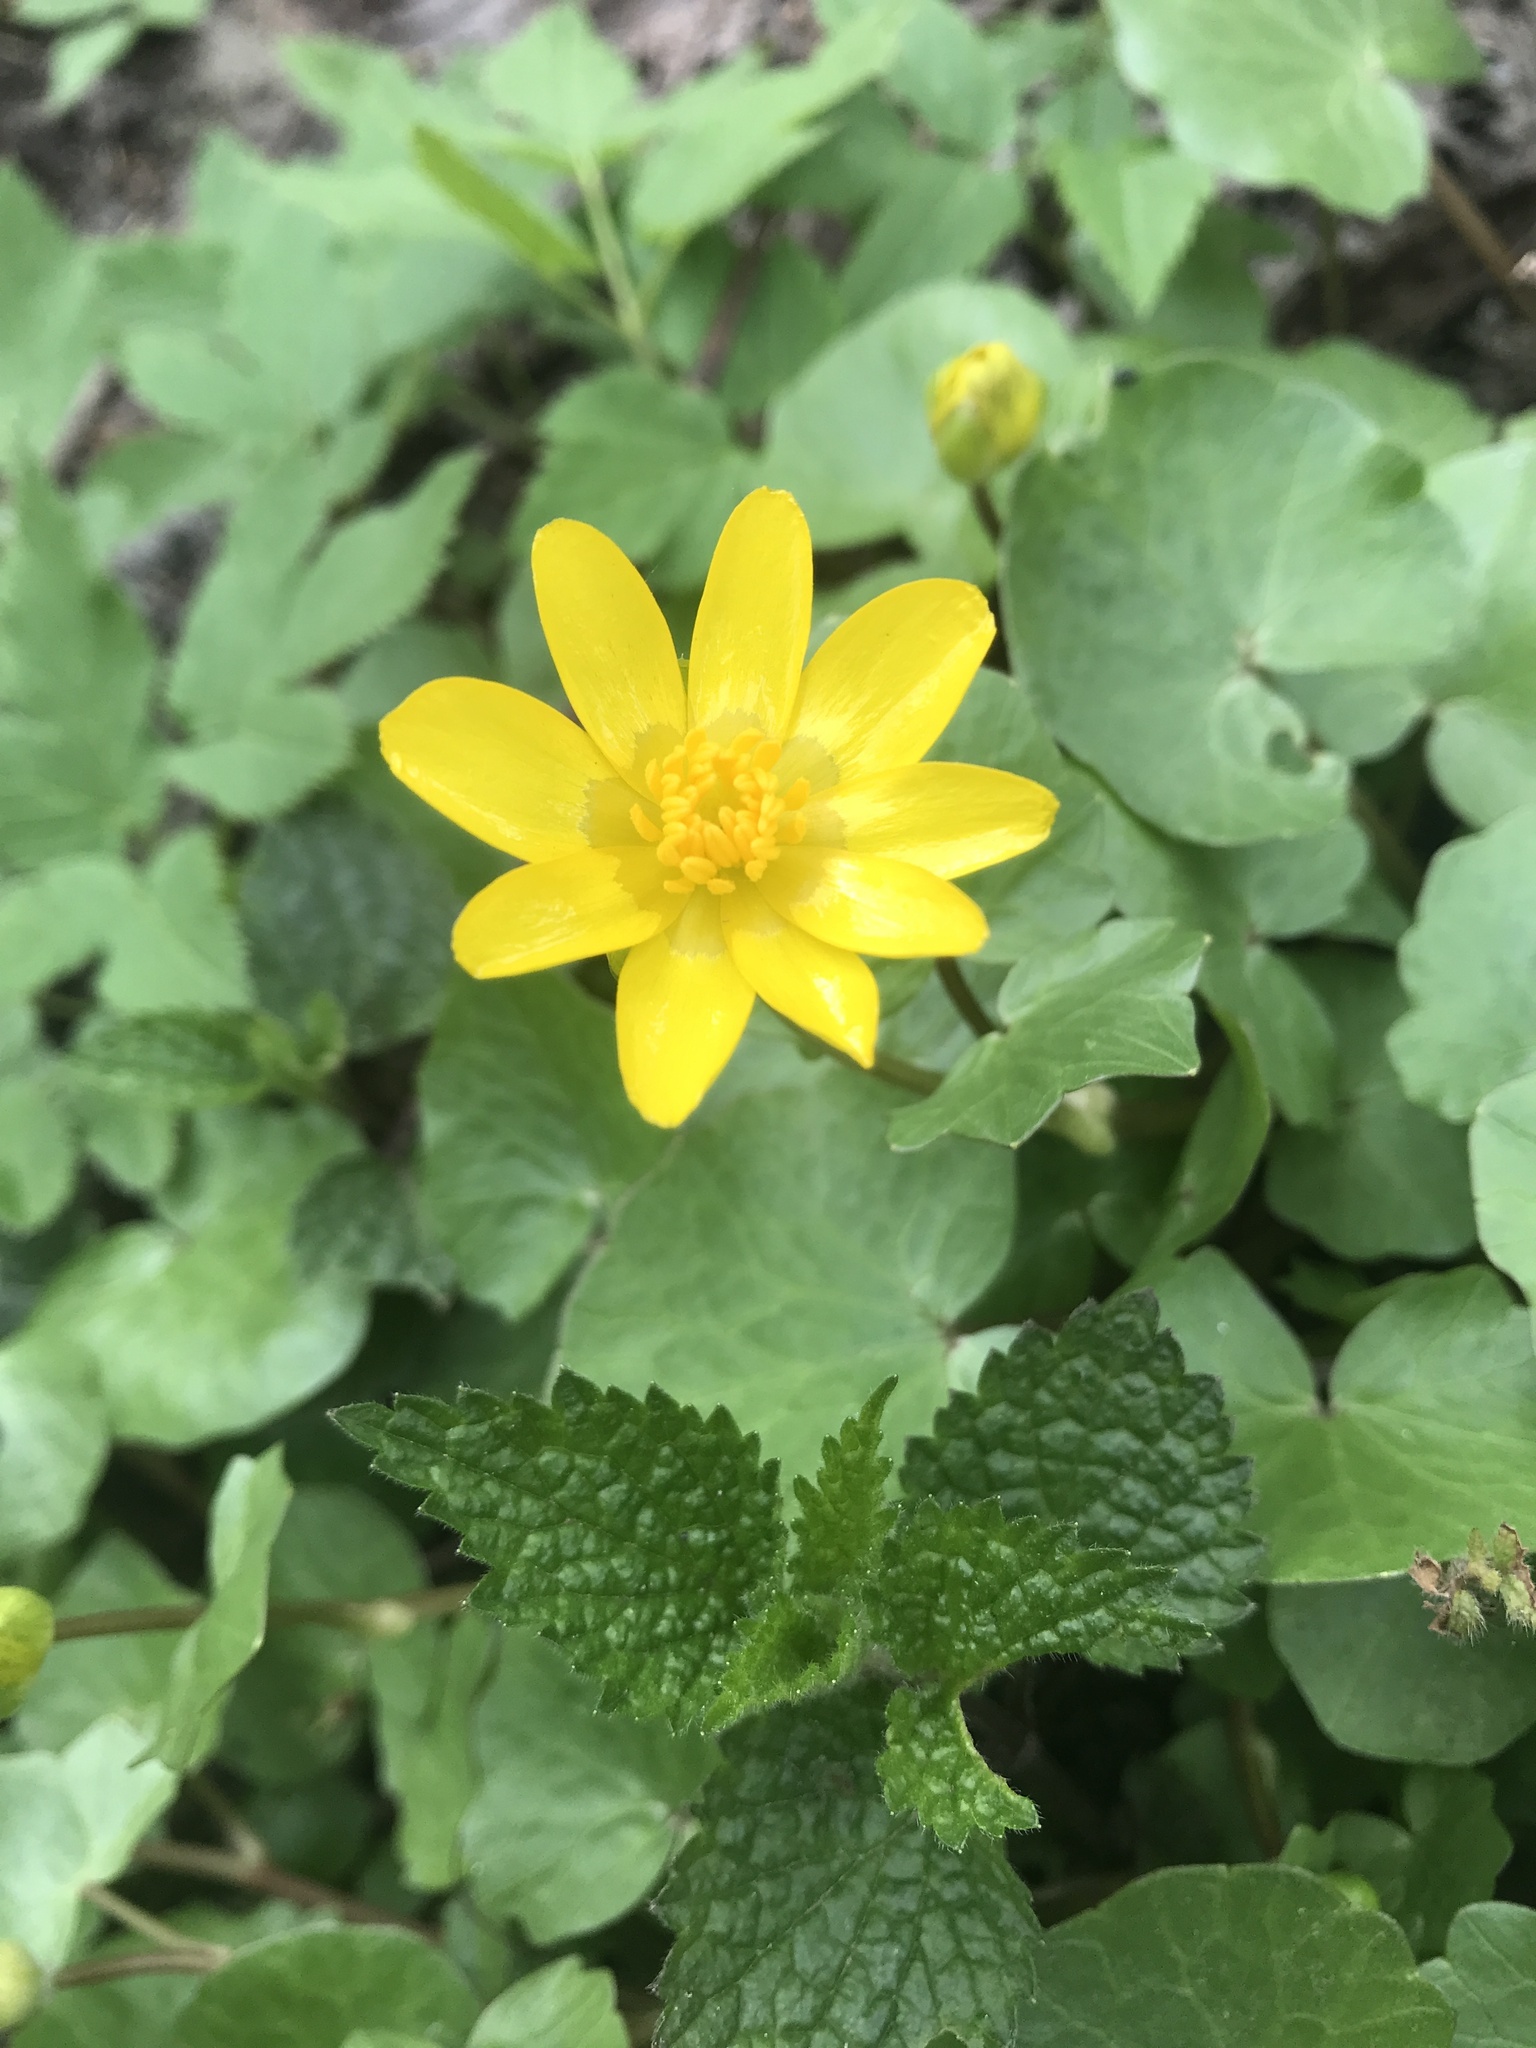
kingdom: Plantae
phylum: Tracheophyta
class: Magnoliopsida
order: Ranunculales
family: Ranunculaceae
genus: Ficaria
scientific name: Ficaria verna
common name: Lesser celandine
